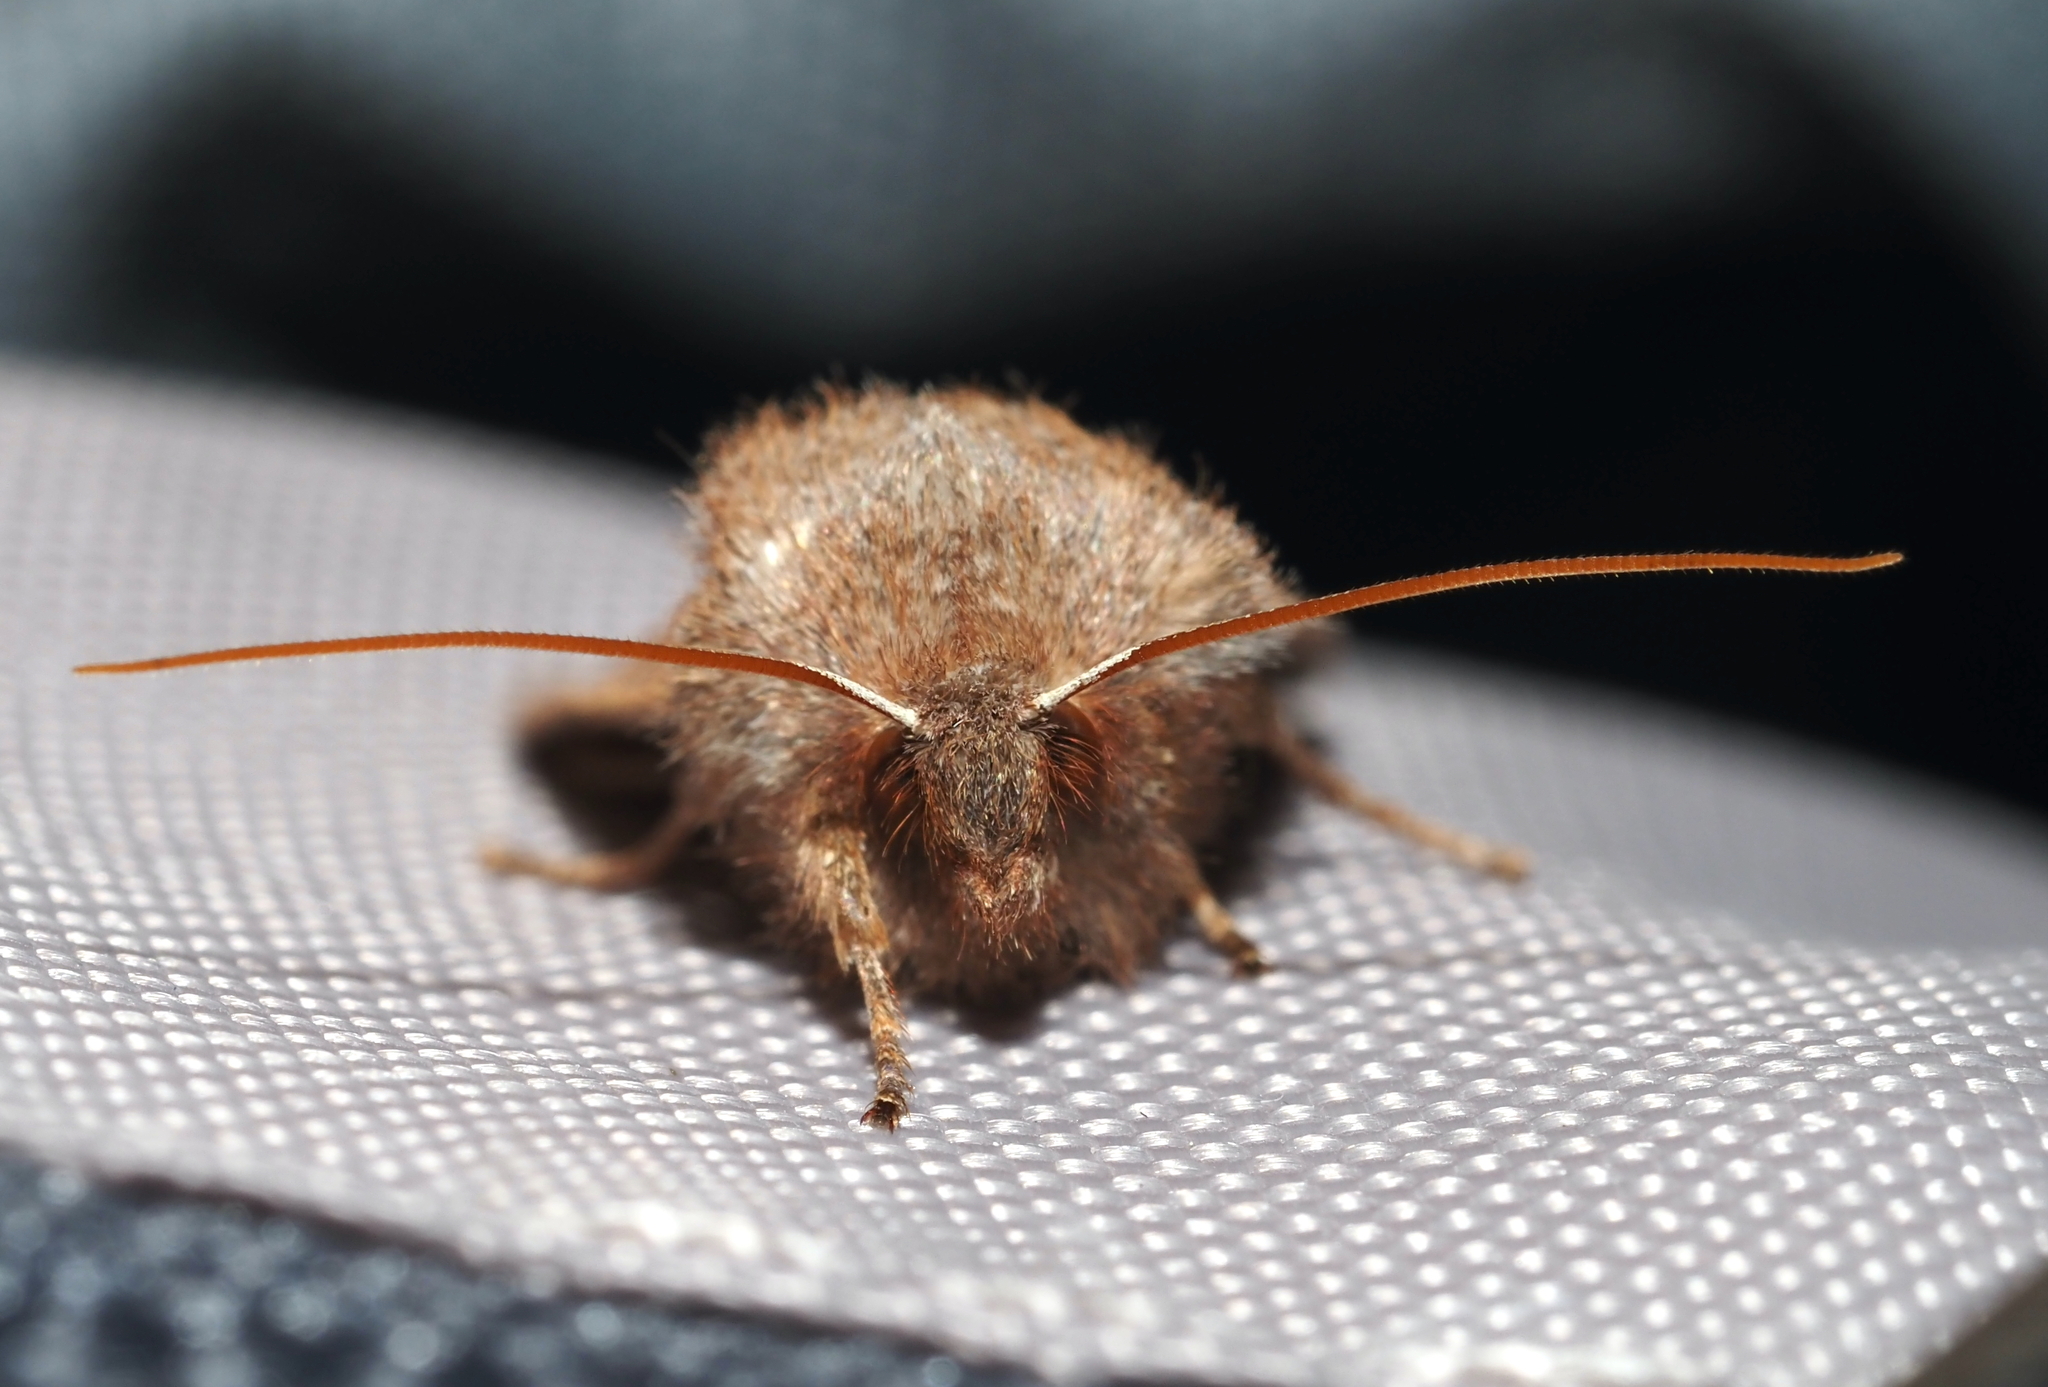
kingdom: Animalia
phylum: Arthropoda
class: Insecta
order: Lepidoptera
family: Noctuidae
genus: Eupsilia
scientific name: Eupsilia vinulenta
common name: Straight-toothed sallow
